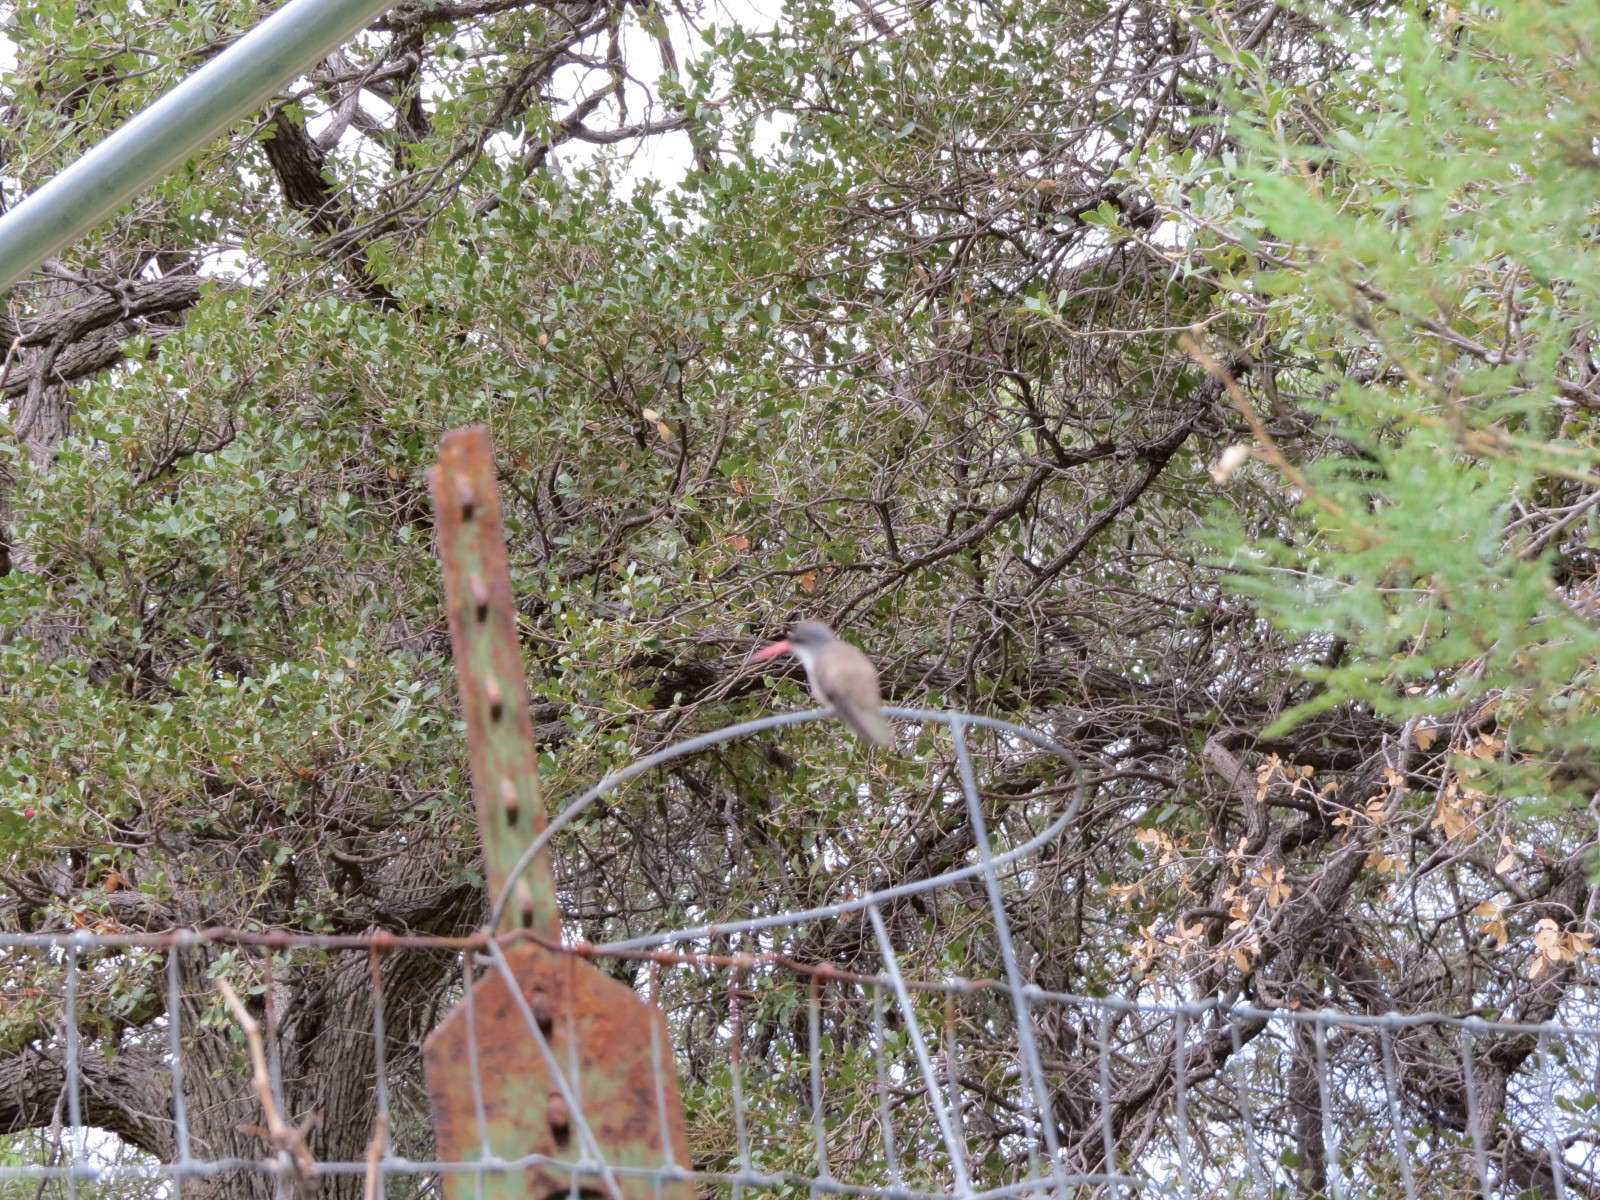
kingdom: Animalia
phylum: Chordata
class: Aves
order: Apodiformes
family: Trochilidae
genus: Leucolia
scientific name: Leucolia violiceps
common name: Violet-crowned hummingbird
